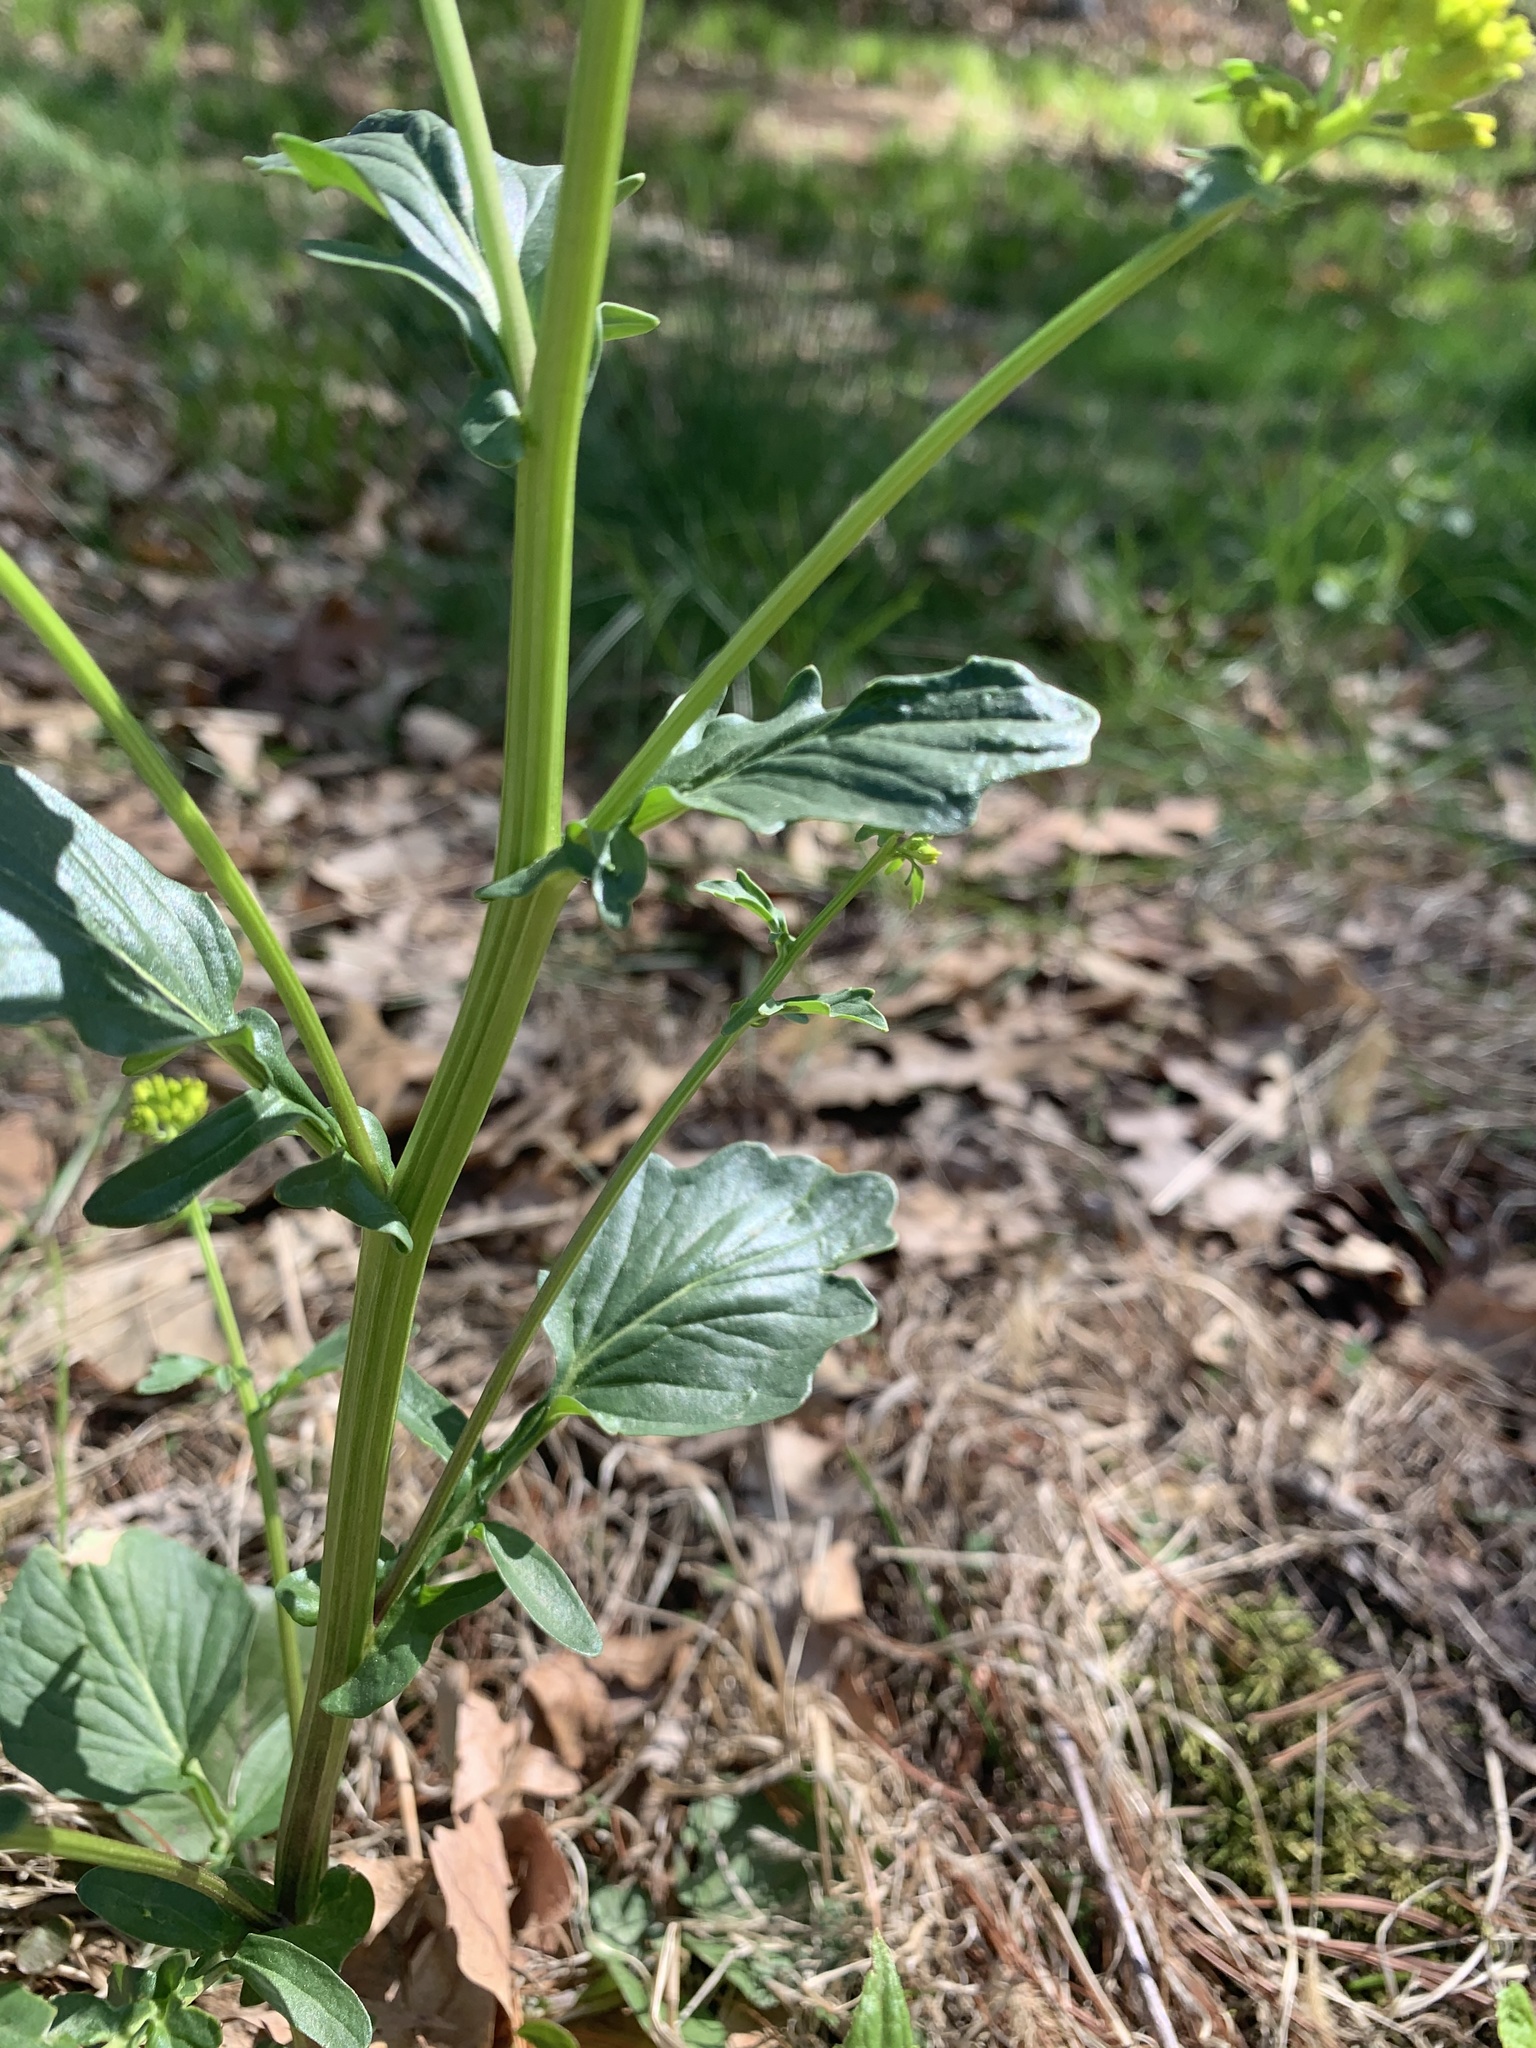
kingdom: Plantae
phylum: Tracheophyta
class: Magnoliopsida
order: Brassicales
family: Brassicaceae
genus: Barbarea
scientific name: Barbarea vulgaris
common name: Cressy-greens
